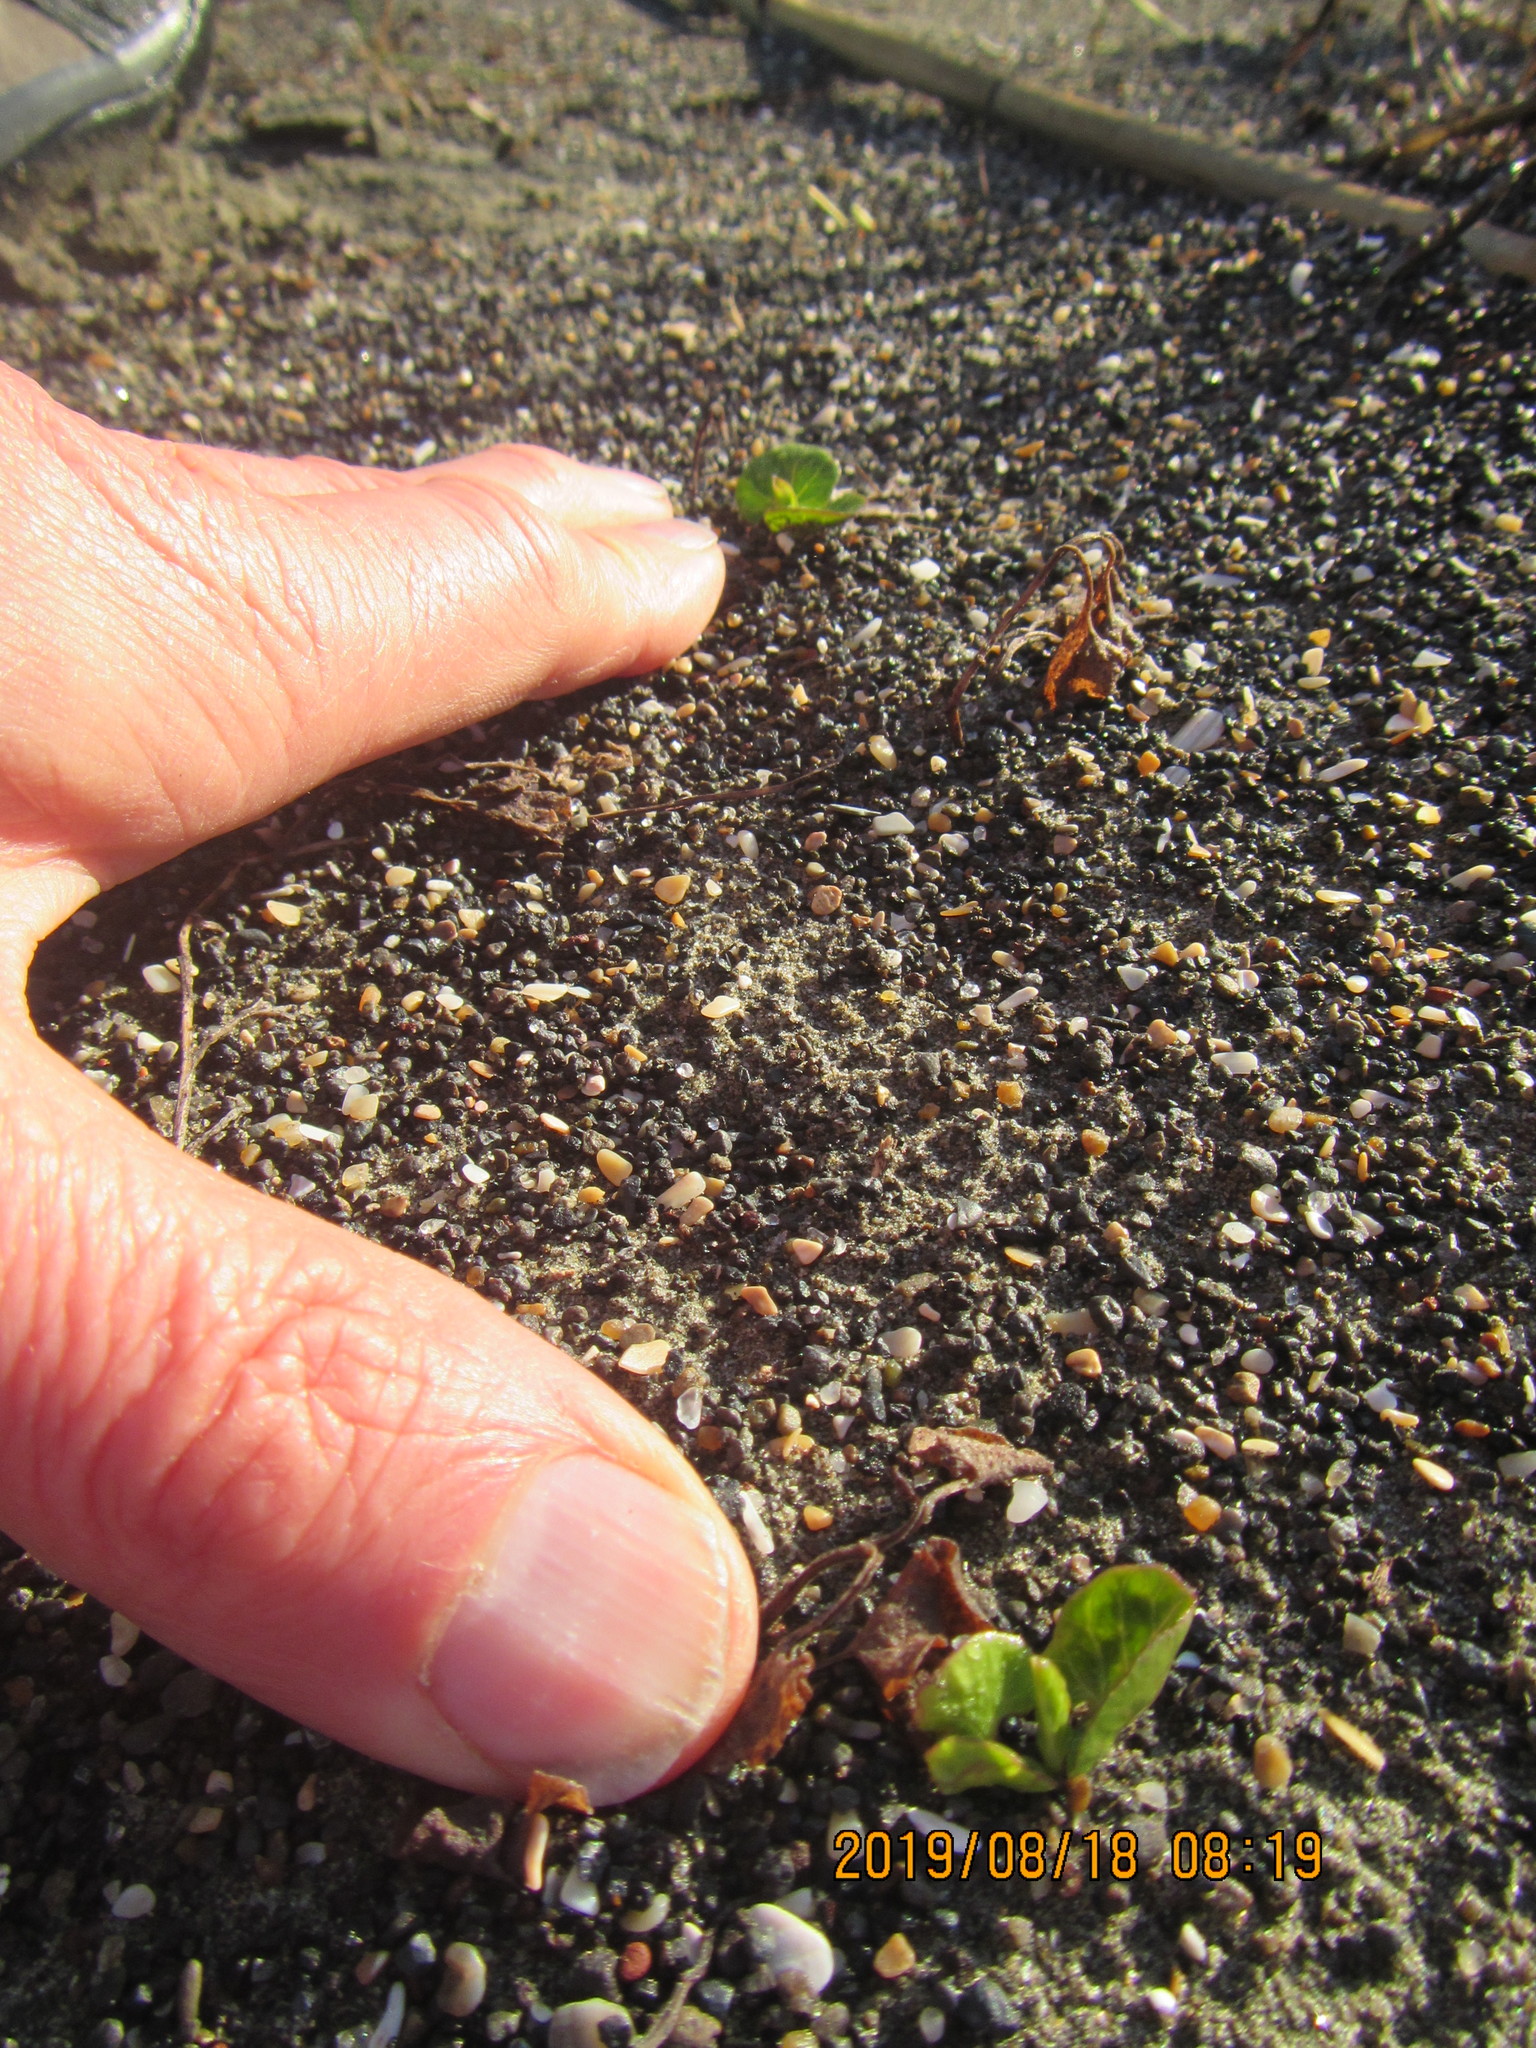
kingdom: Plantae
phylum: Tracheophyta
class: Magnoliopsida
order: Solanales
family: Convolvulaceae
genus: Calystegia
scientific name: Calystegia soldanella
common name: Sea bindweed
